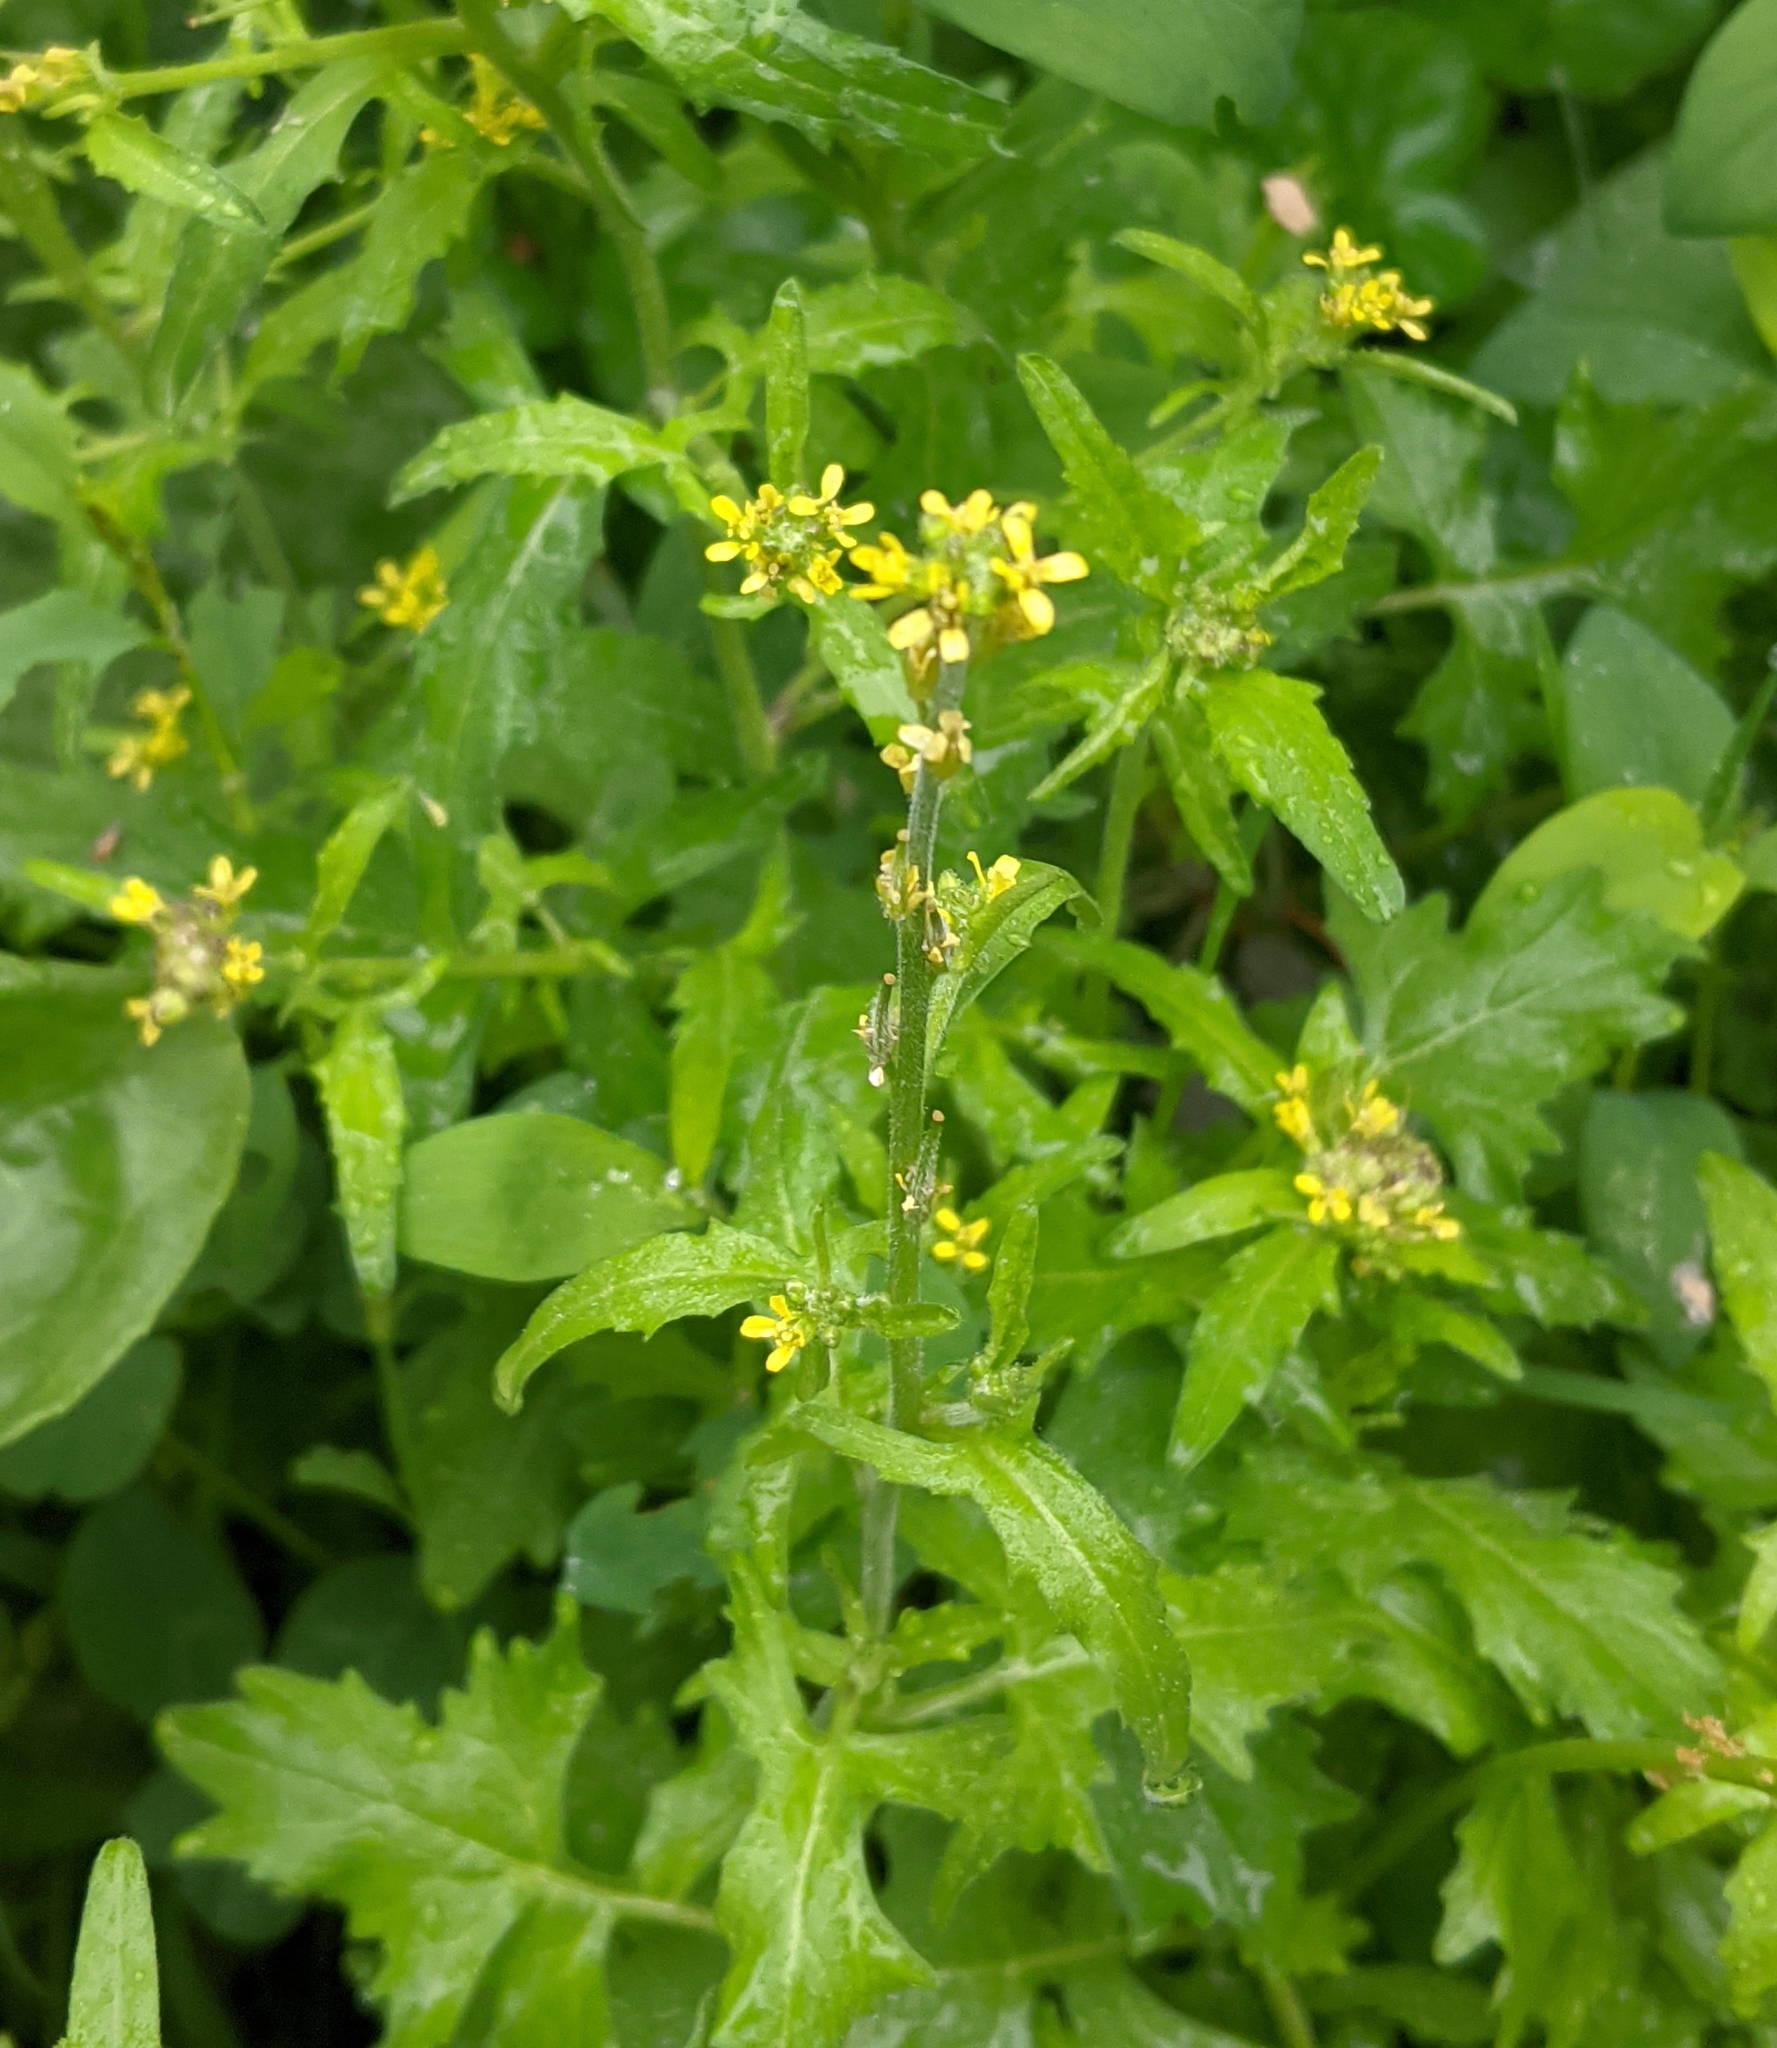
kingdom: Plantae
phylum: Tracheophyta
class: Magnoliopsida
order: Brassicales
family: Brassicaceae
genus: Sisymbrium
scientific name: Sisymbrium officinale
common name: Hedge mustard
